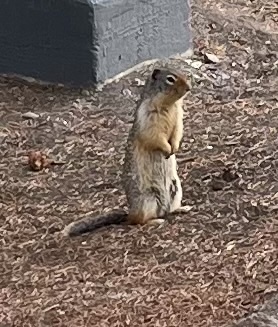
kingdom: Animalia
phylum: Chordata
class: Mammalia
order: Rodentia
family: Sciuridae
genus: Urocitellus
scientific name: Urocitellus columbianus
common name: Columbian ground squirrel
